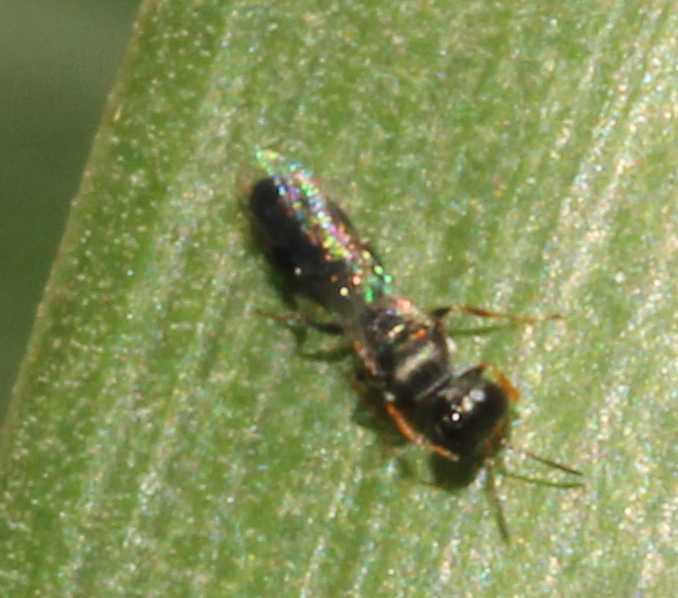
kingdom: Animalia
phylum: Arthropoda
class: Insecta
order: Hymenoptera
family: Crabronidae
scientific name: Crabronidae
